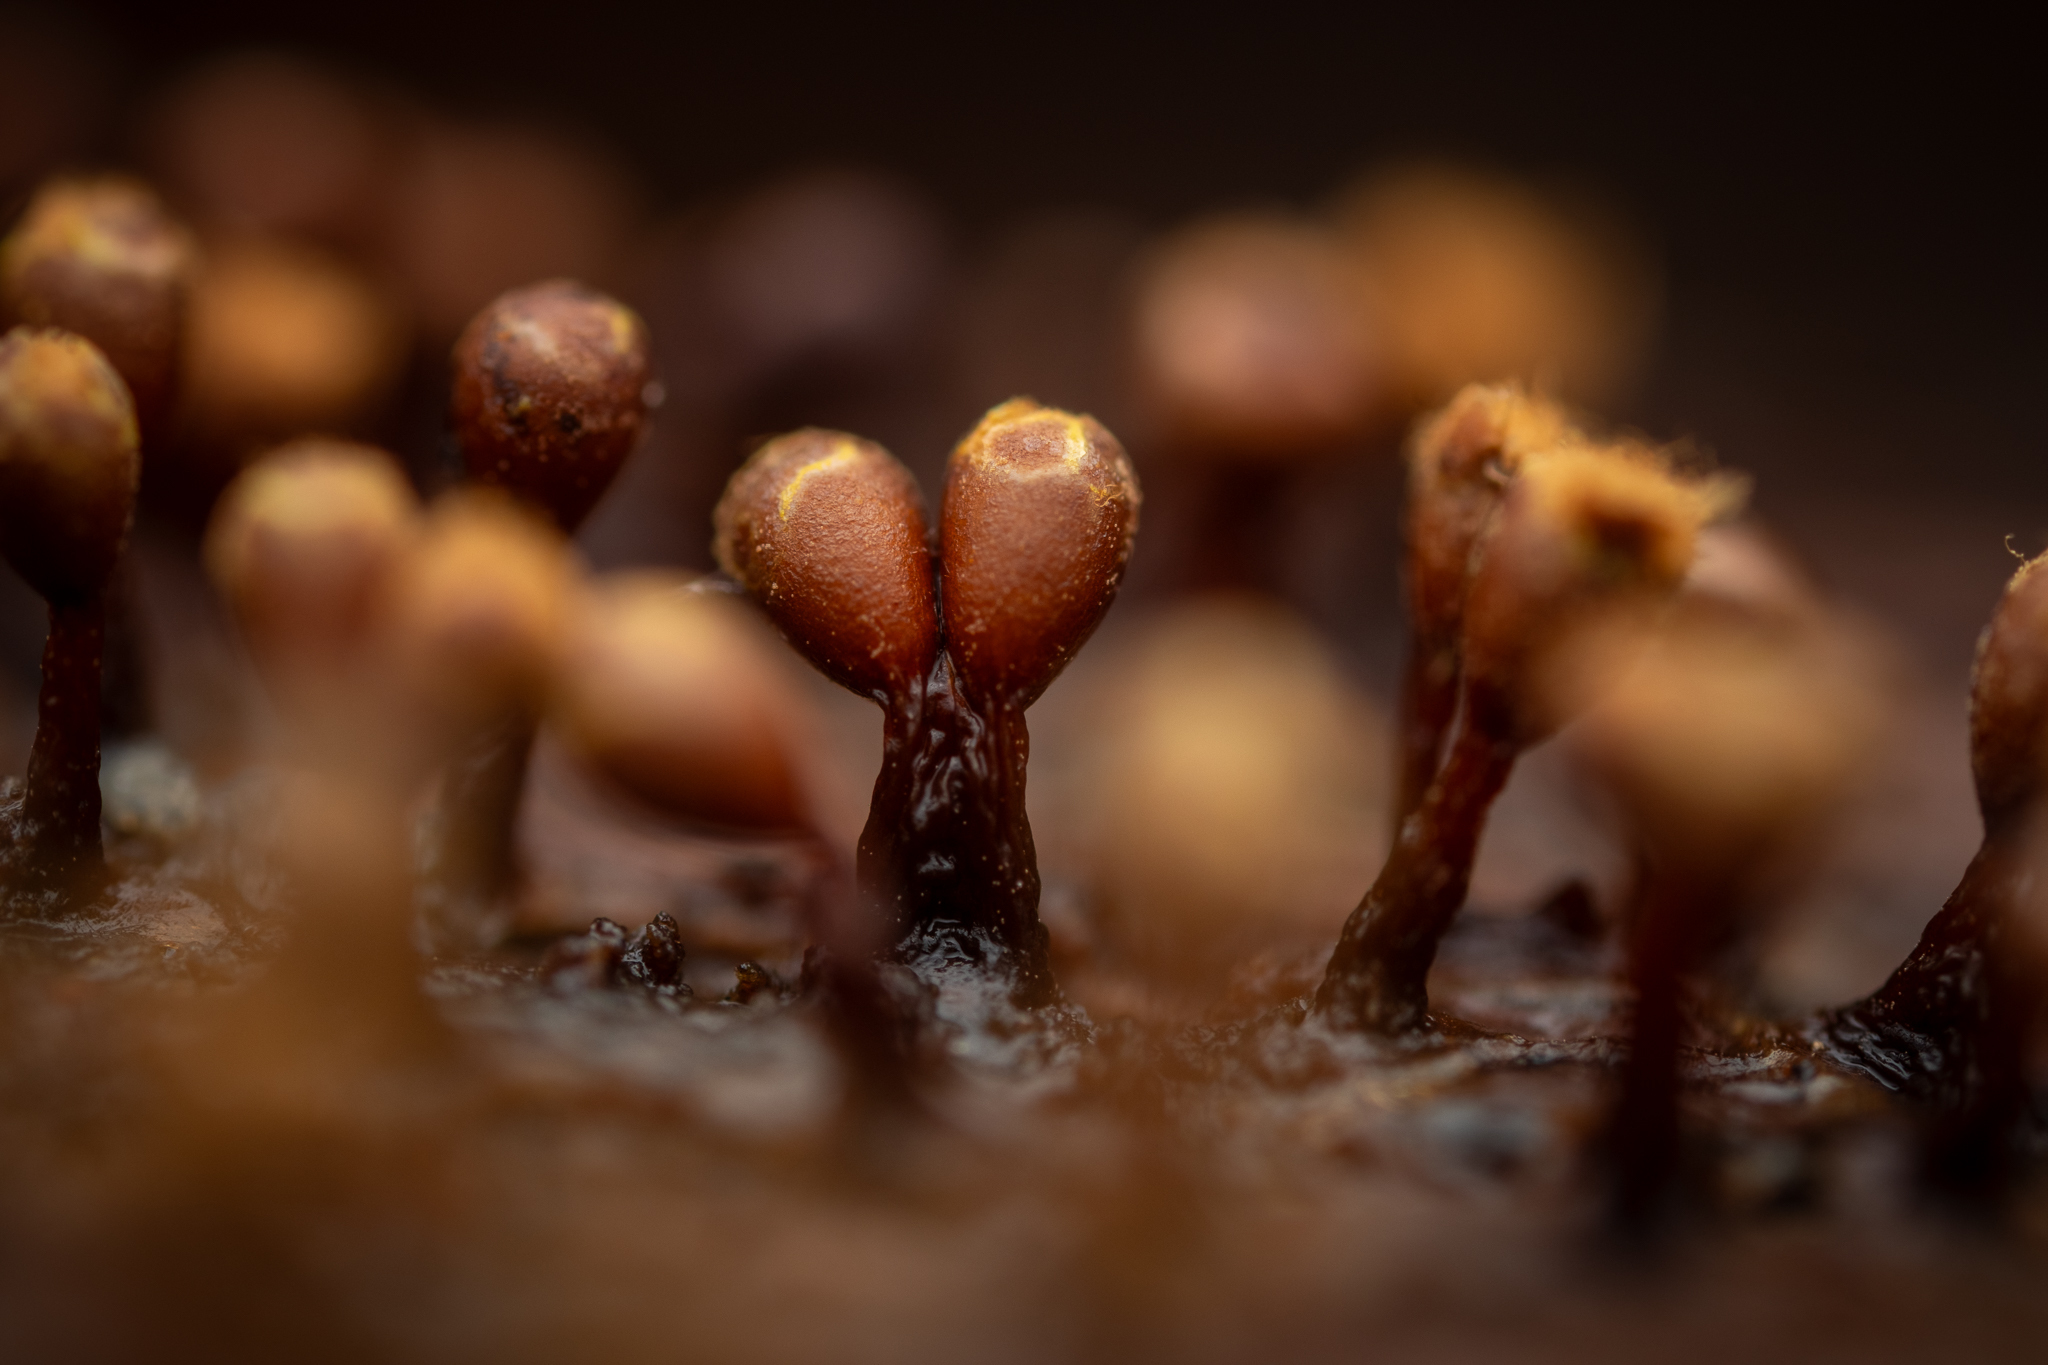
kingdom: Protozoa
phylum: Mycetozoa
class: Myxomycetes
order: Trichiales
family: Trichiaceae
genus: Trichia
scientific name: Trichia botrytis
